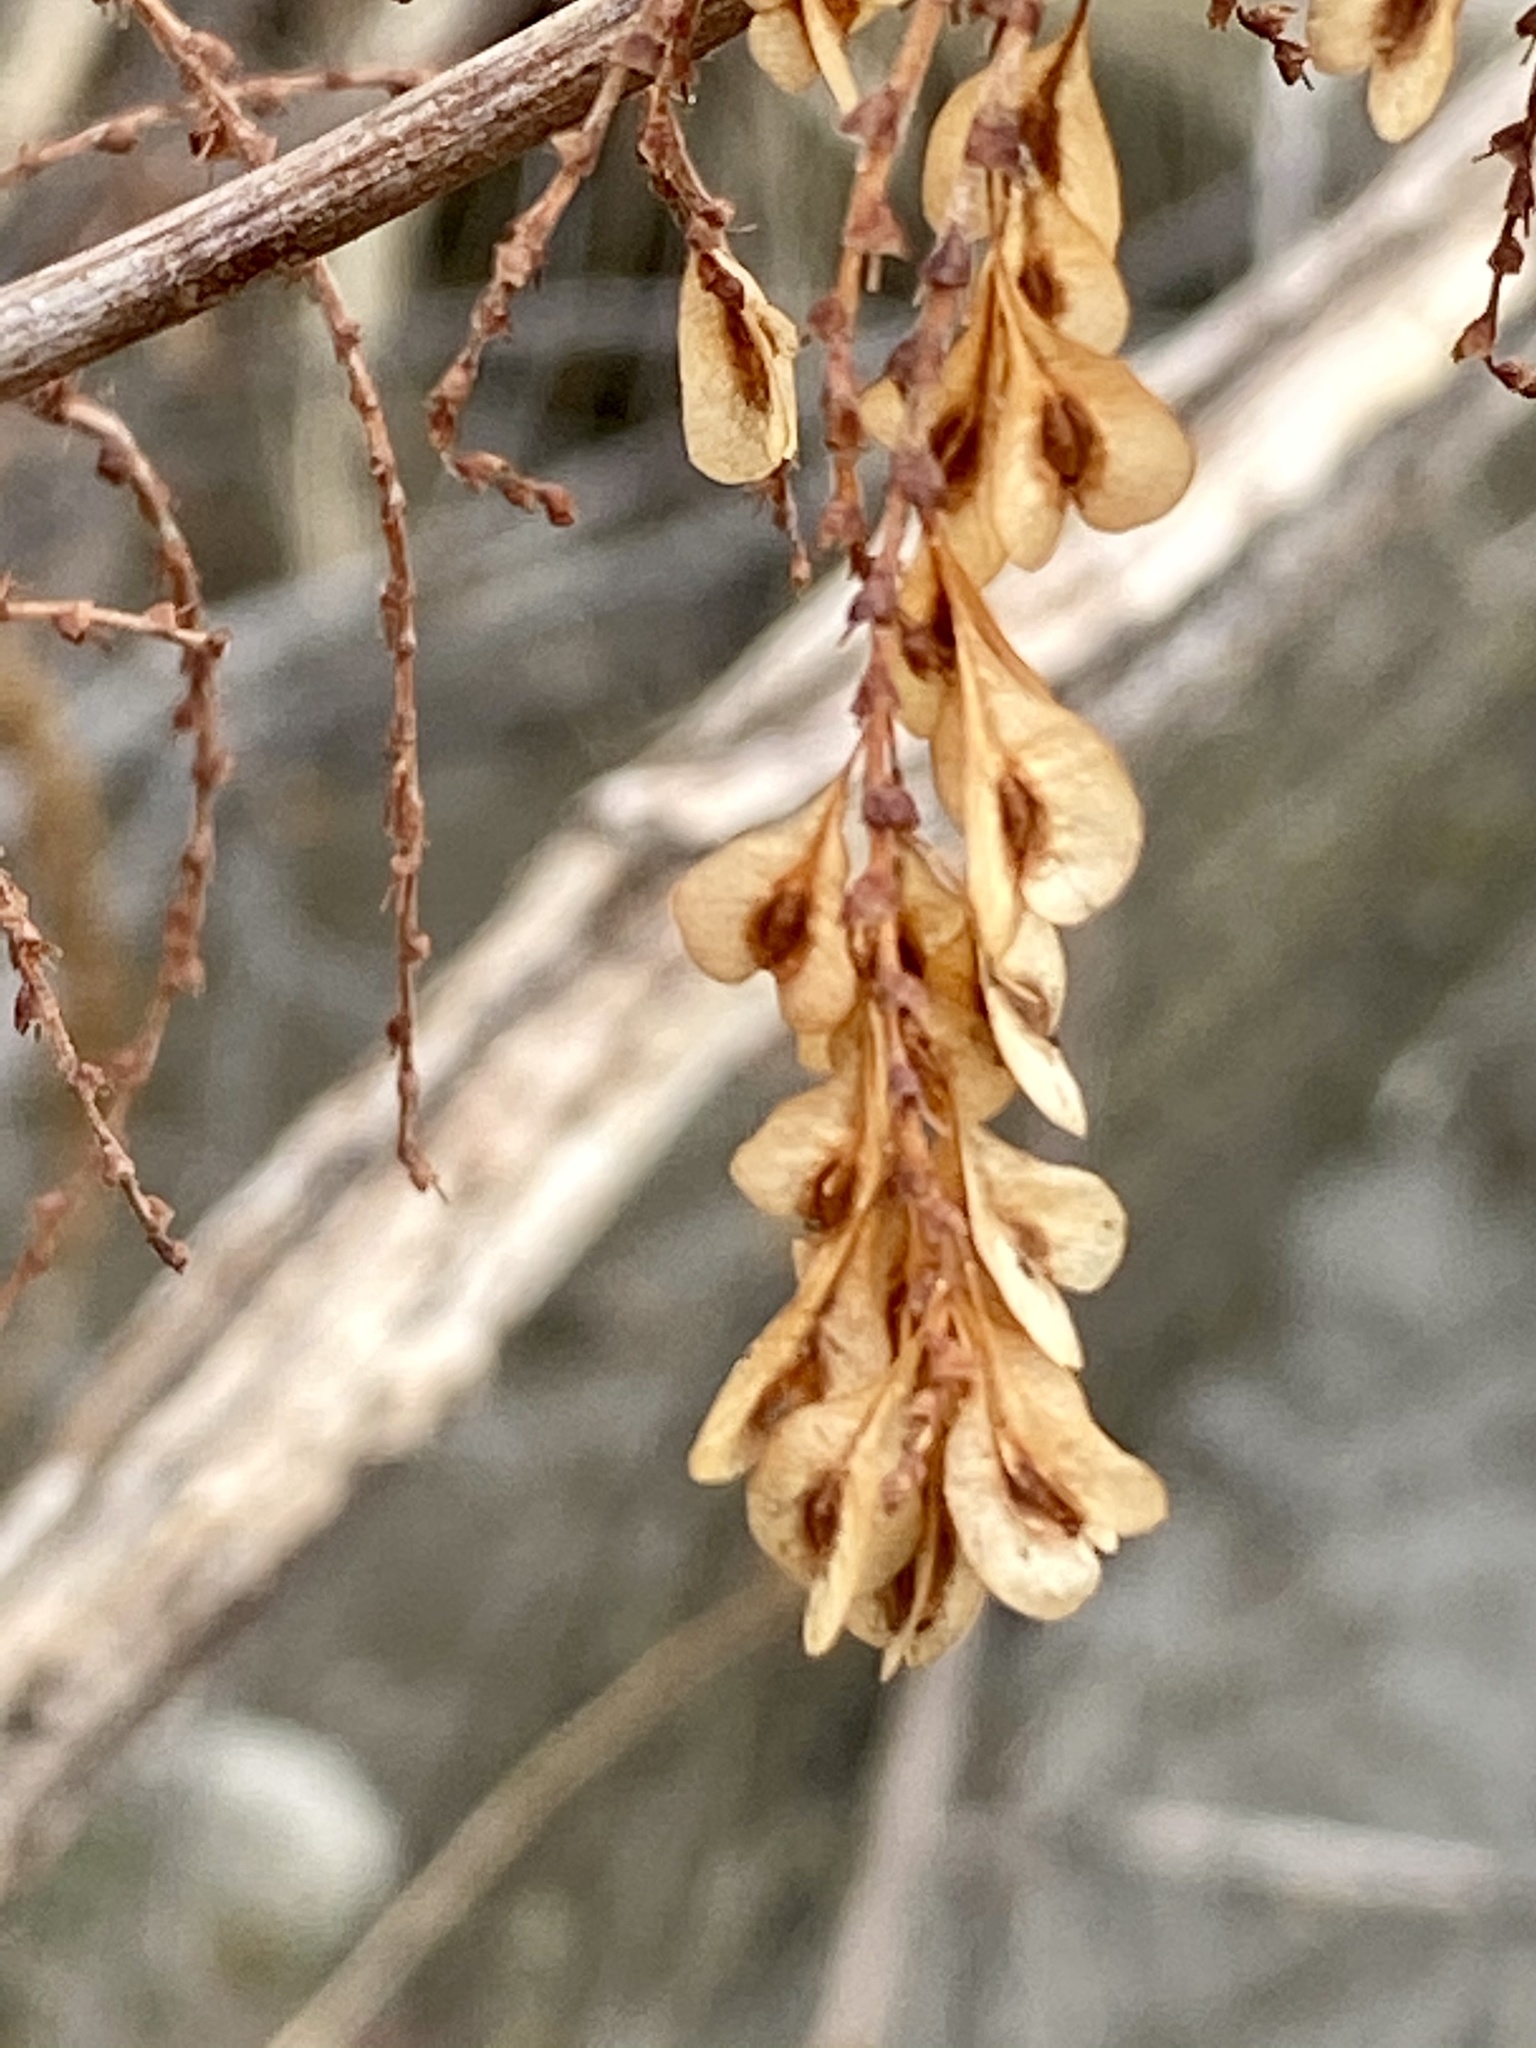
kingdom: Plantae
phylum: Tracheophyta
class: Magnoliopsida
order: Caryophyllales
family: Polygonaceae
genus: Reynoutria
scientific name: Reynoutria japonica
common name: Japanese knotweed
